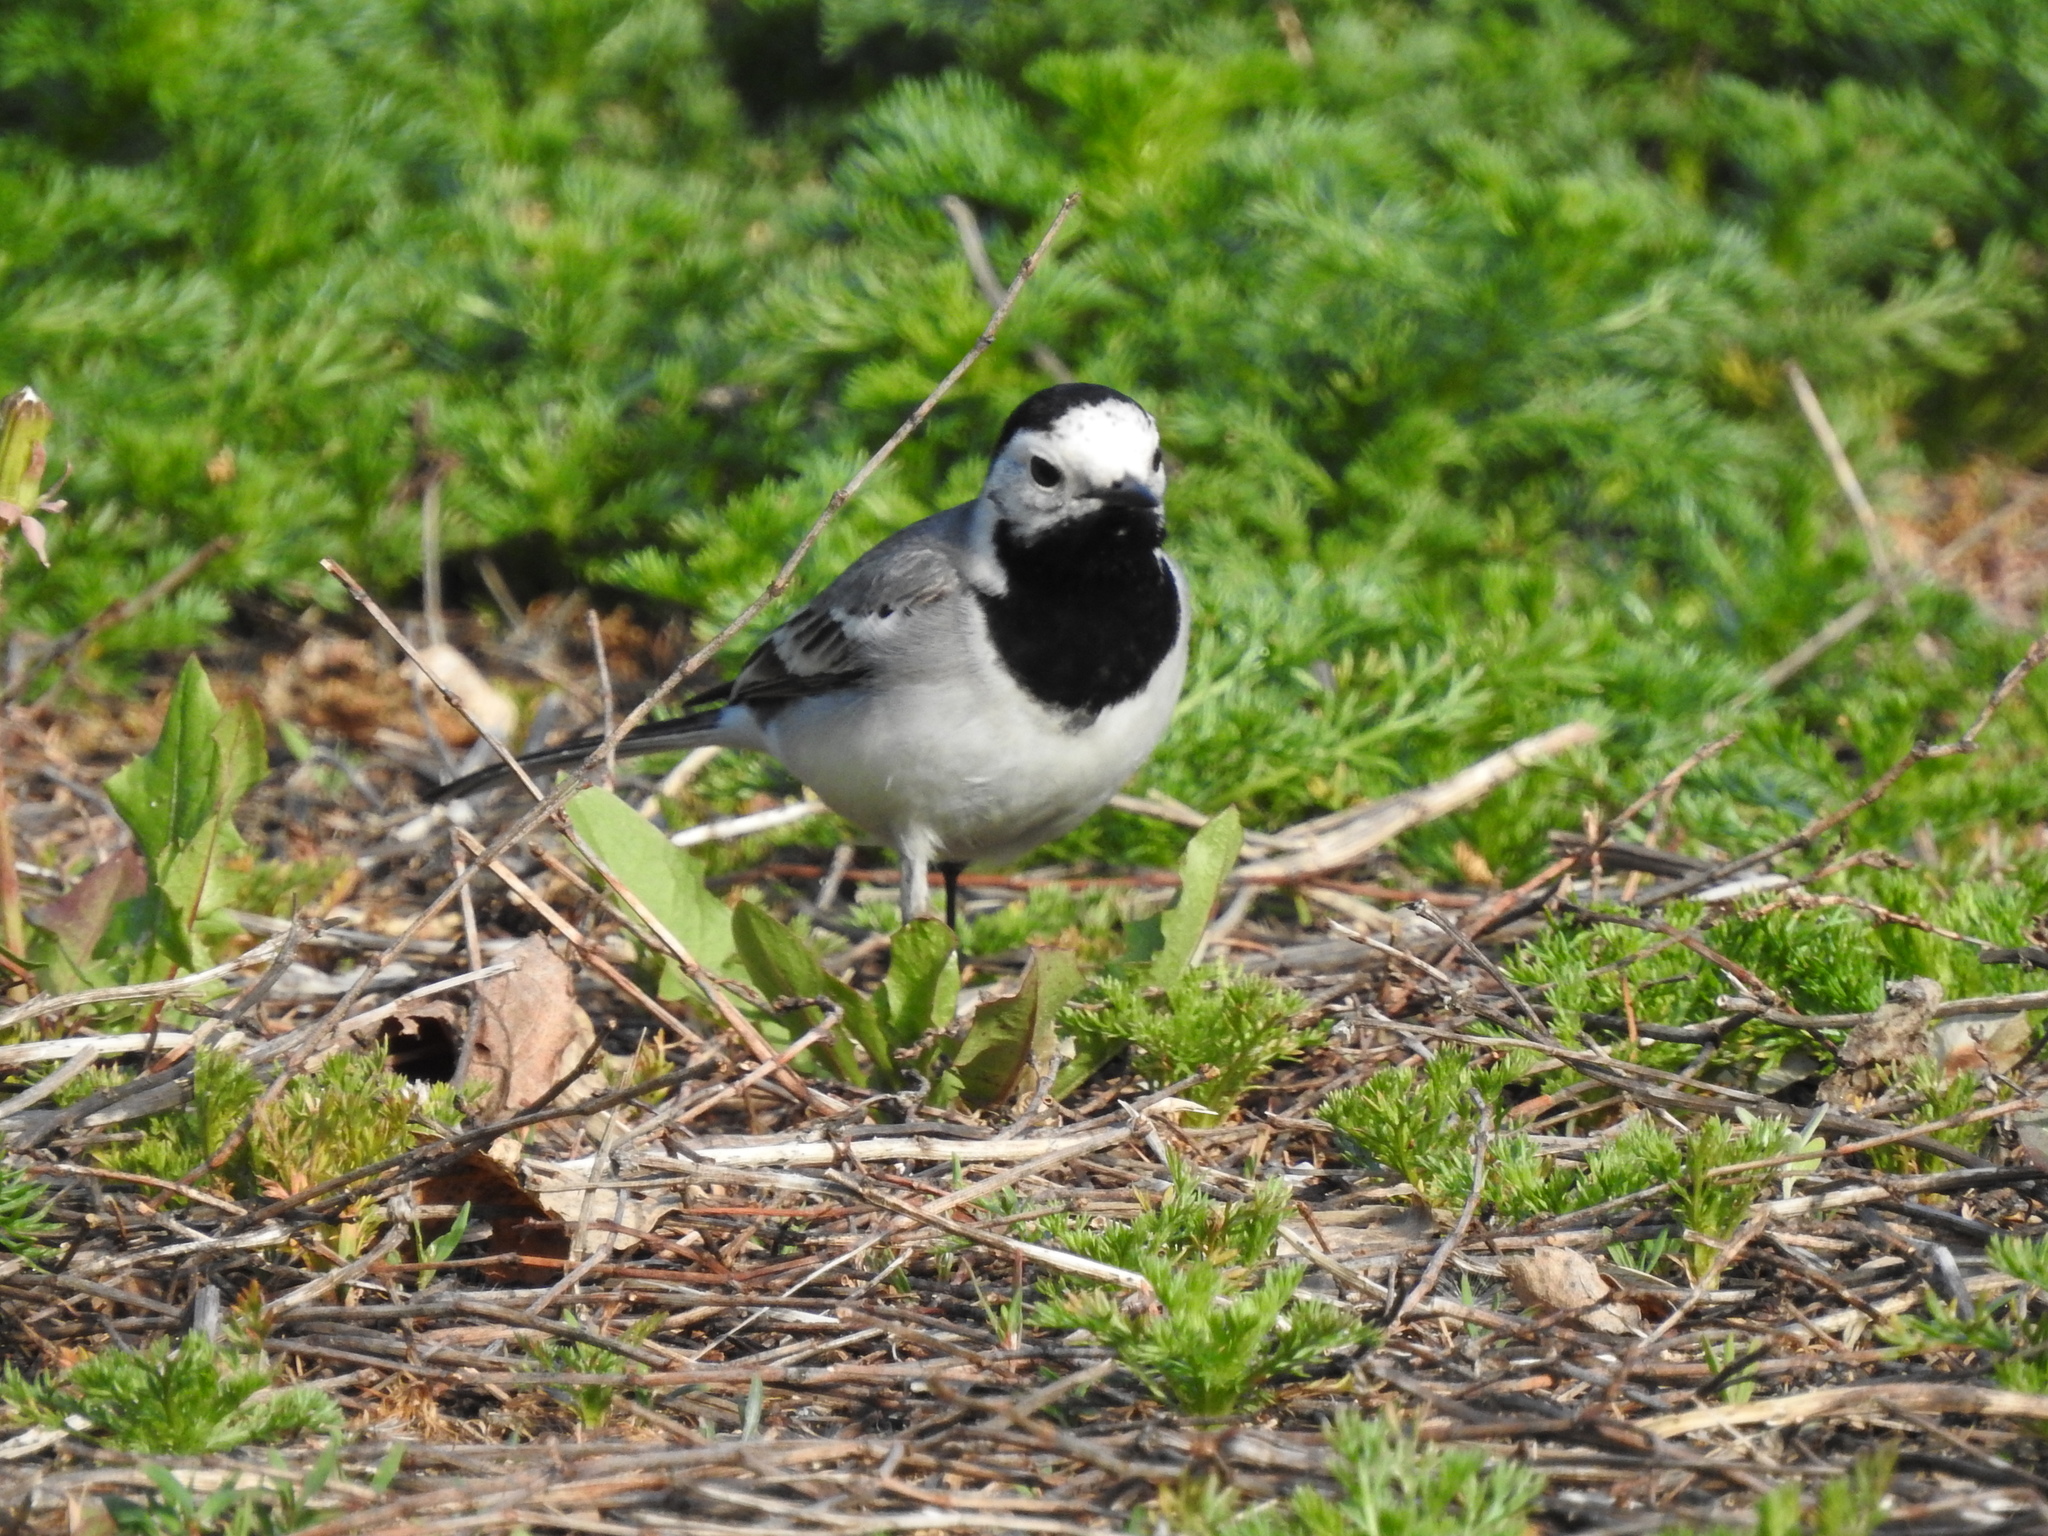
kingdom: Animalia
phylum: Chordata
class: Aves
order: Passeriformes
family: Motacillidae
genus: Motacilla
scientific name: Motacilla alba
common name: White wagtail
